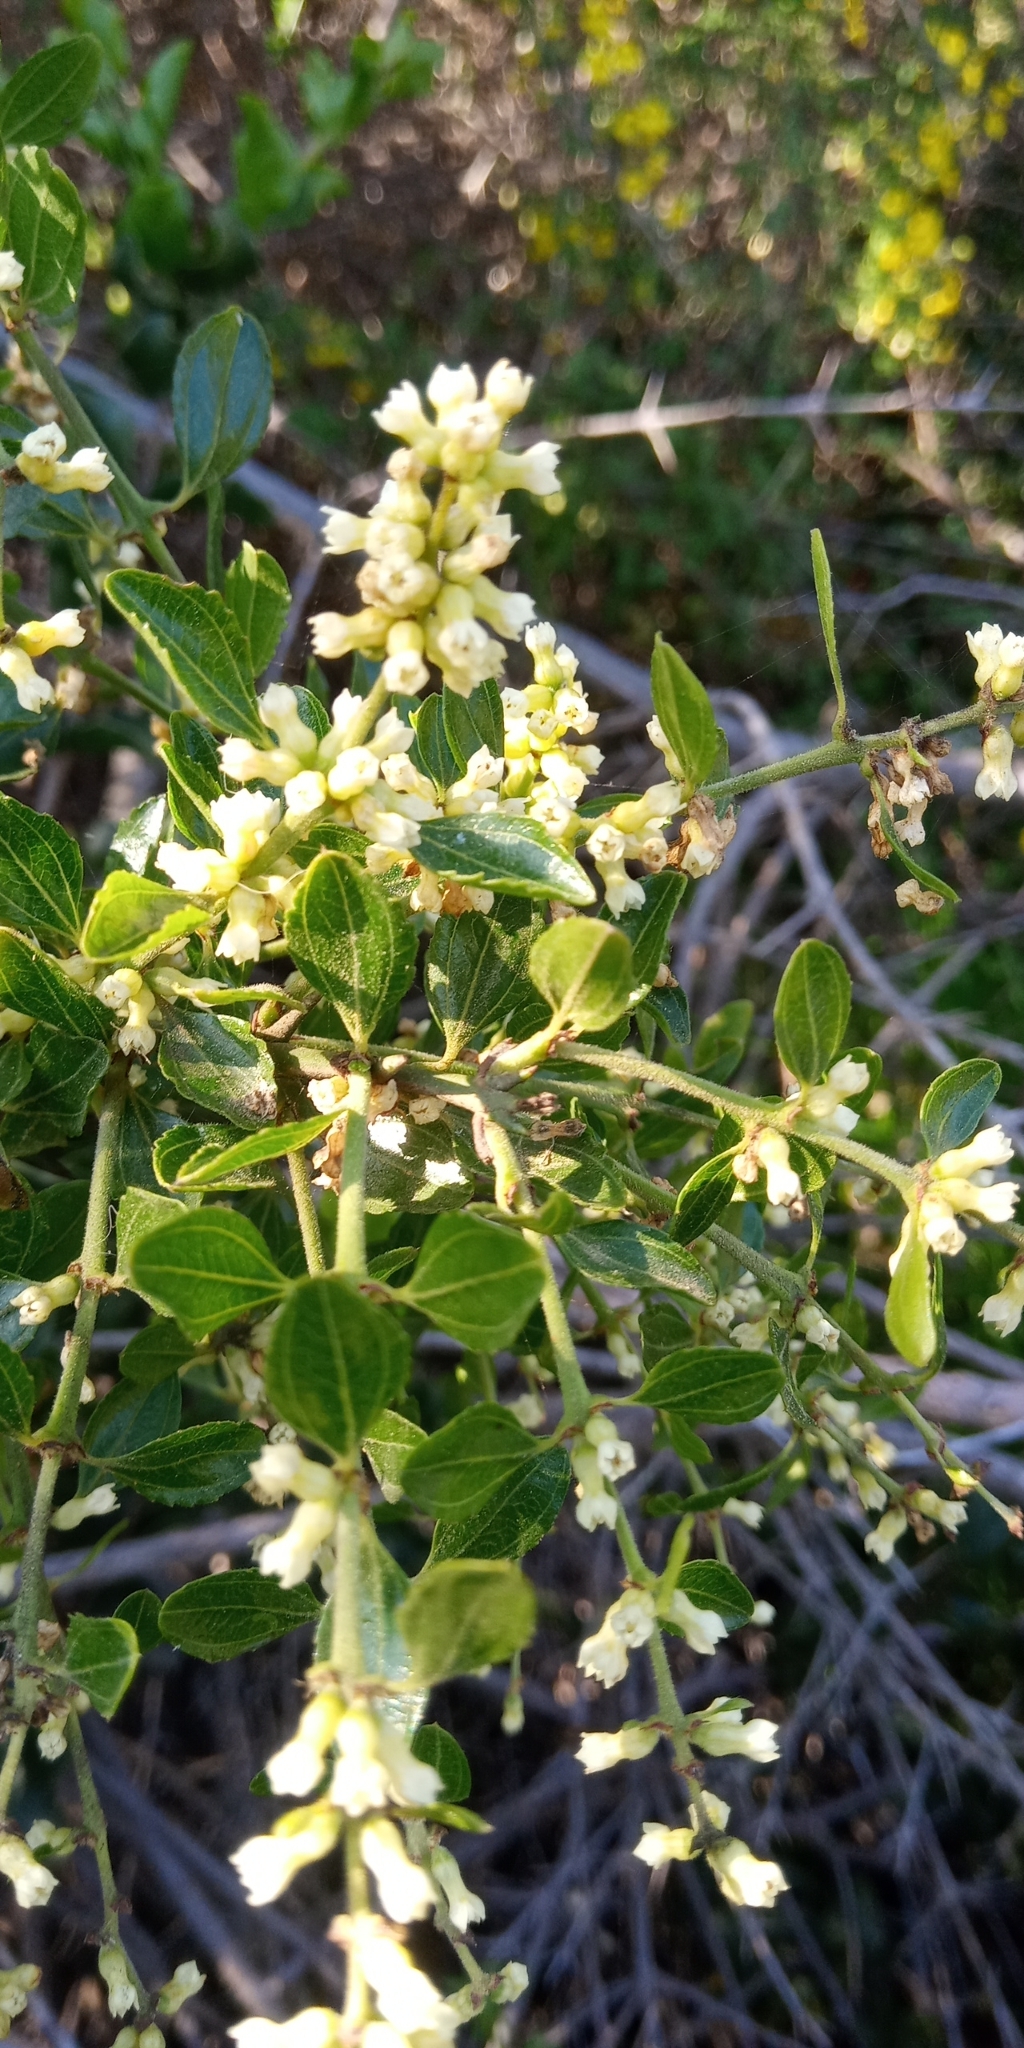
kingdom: Plantae
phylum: Tracheophyta
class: Magnoliopsida
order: Rosales
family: Rhamnaceae
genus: Retanilla
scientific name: Retanilla trinervia
